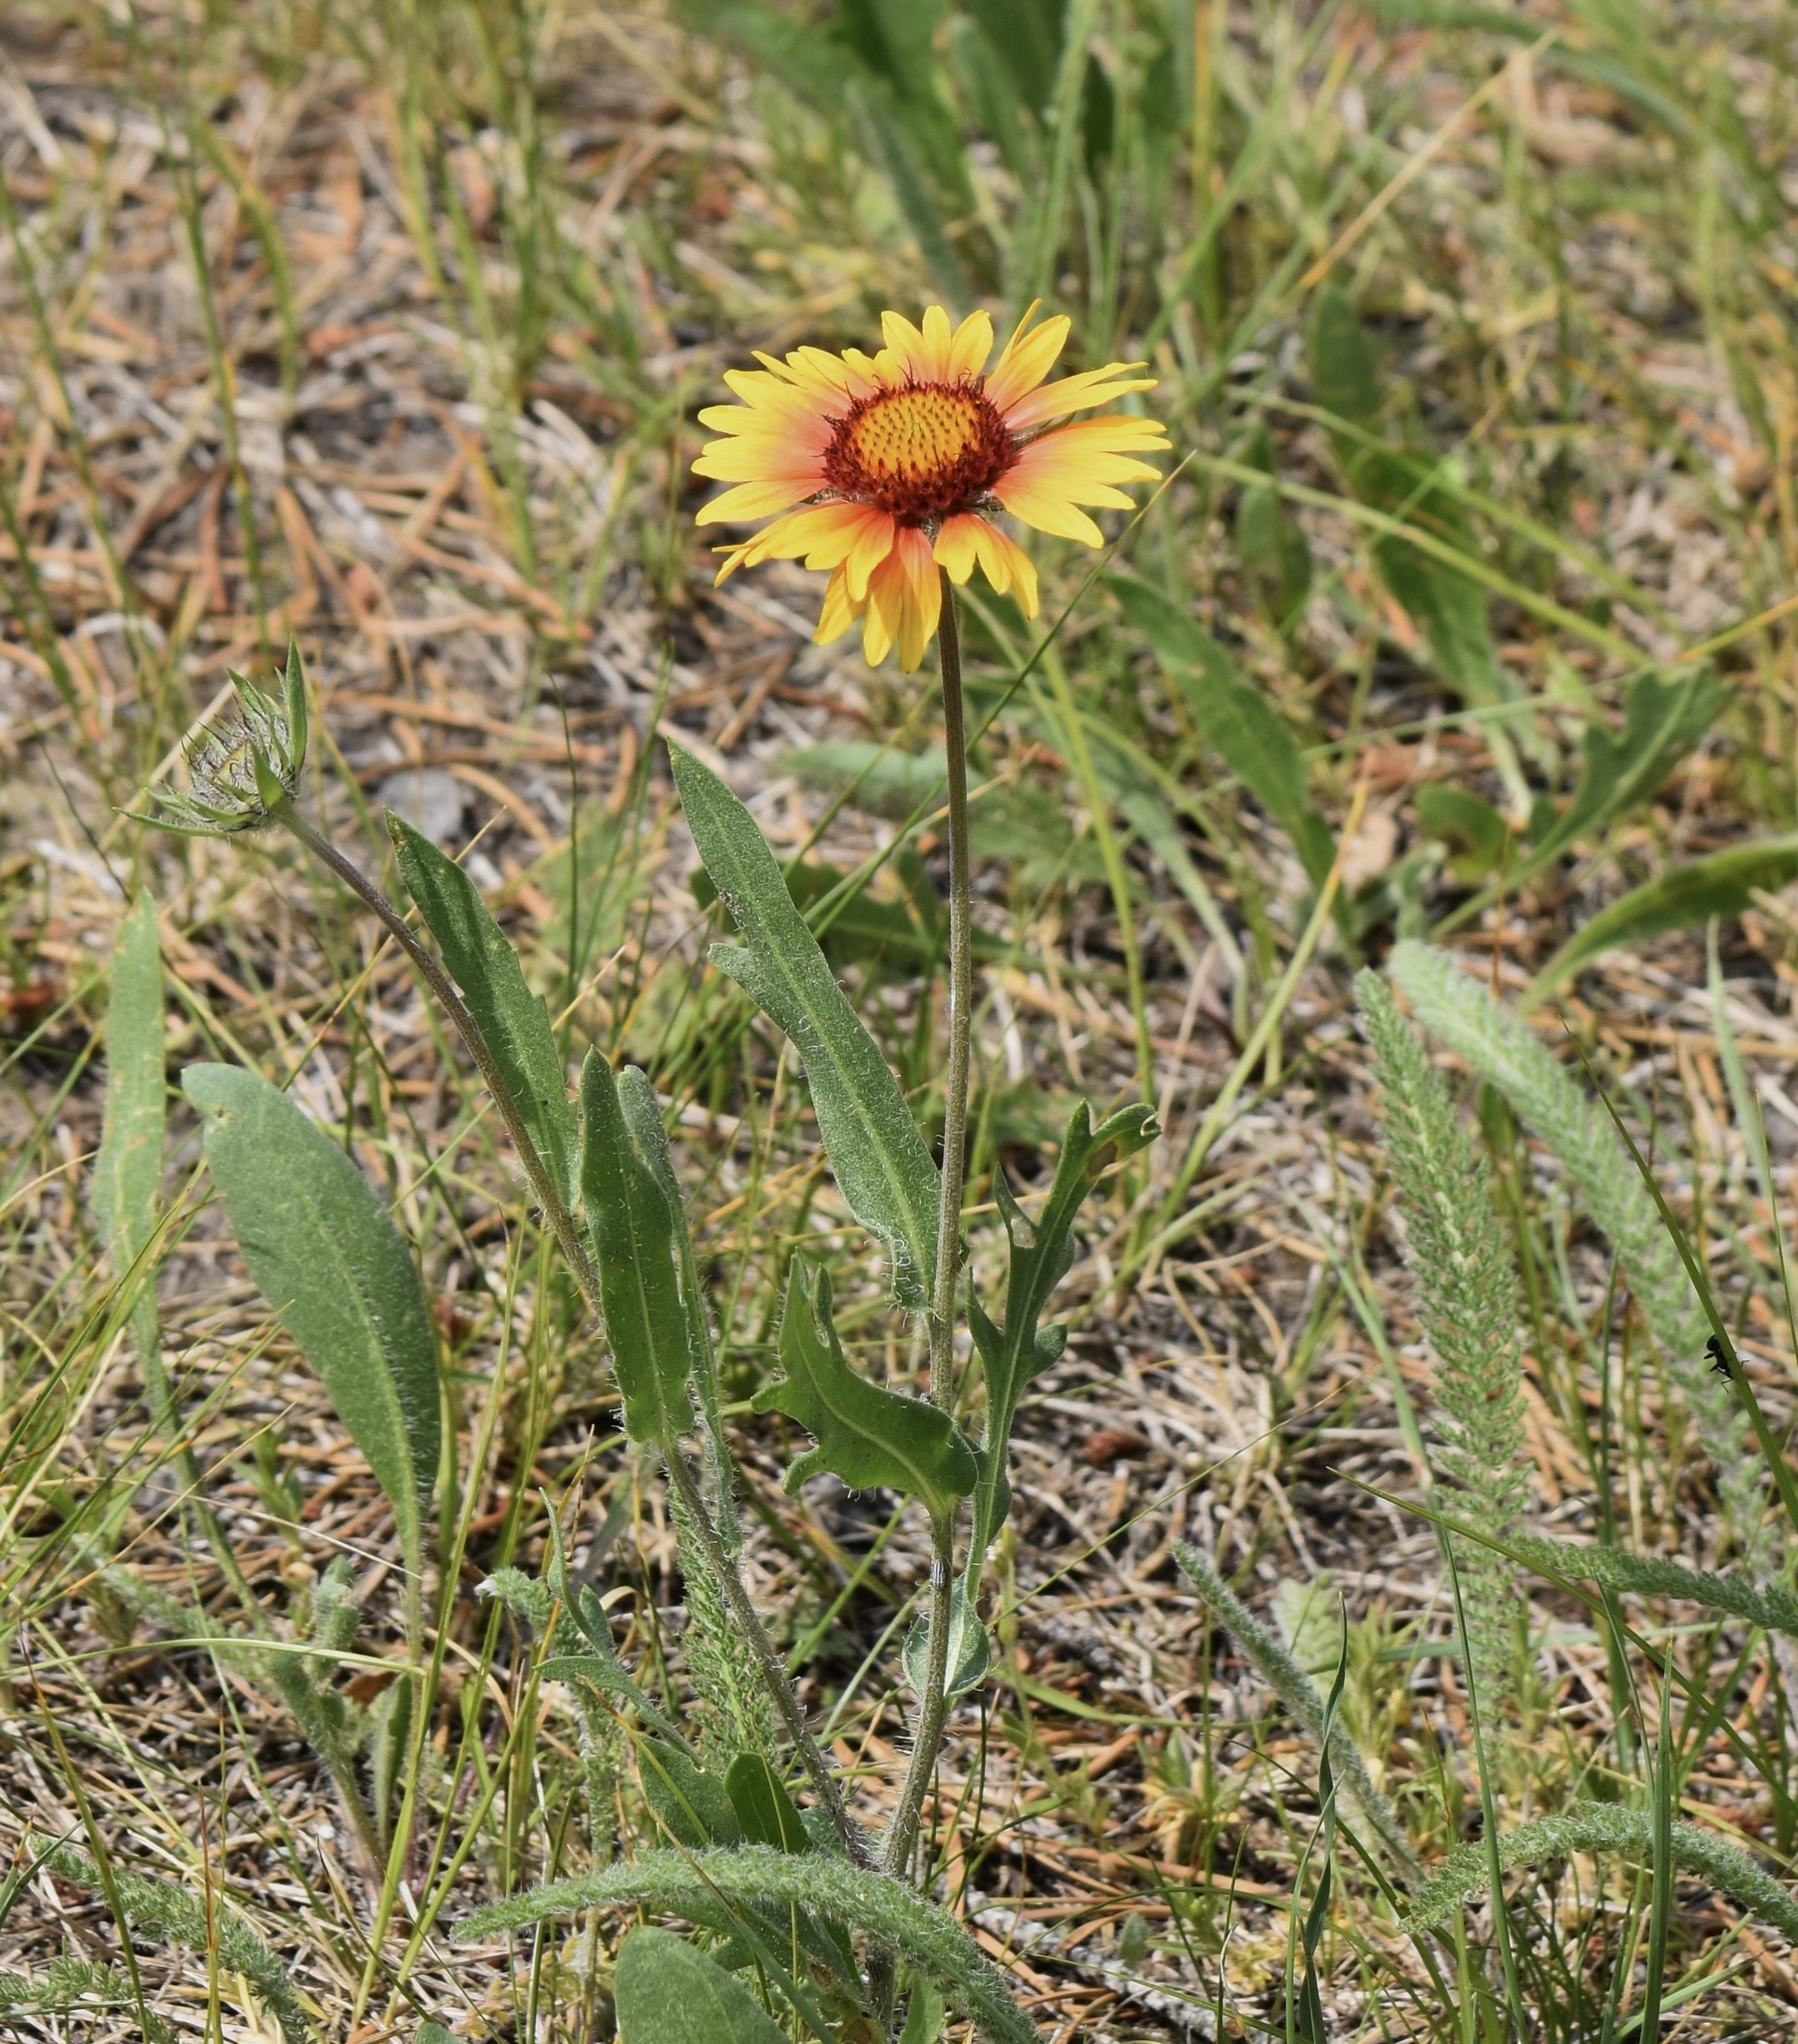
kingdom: Plantae
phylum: Tracheophyta
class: Magnoliopsida
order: Asterales
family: Asteraceae
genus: Gaillardia
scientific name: Gaillardia aristata
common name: Blanket-flower
